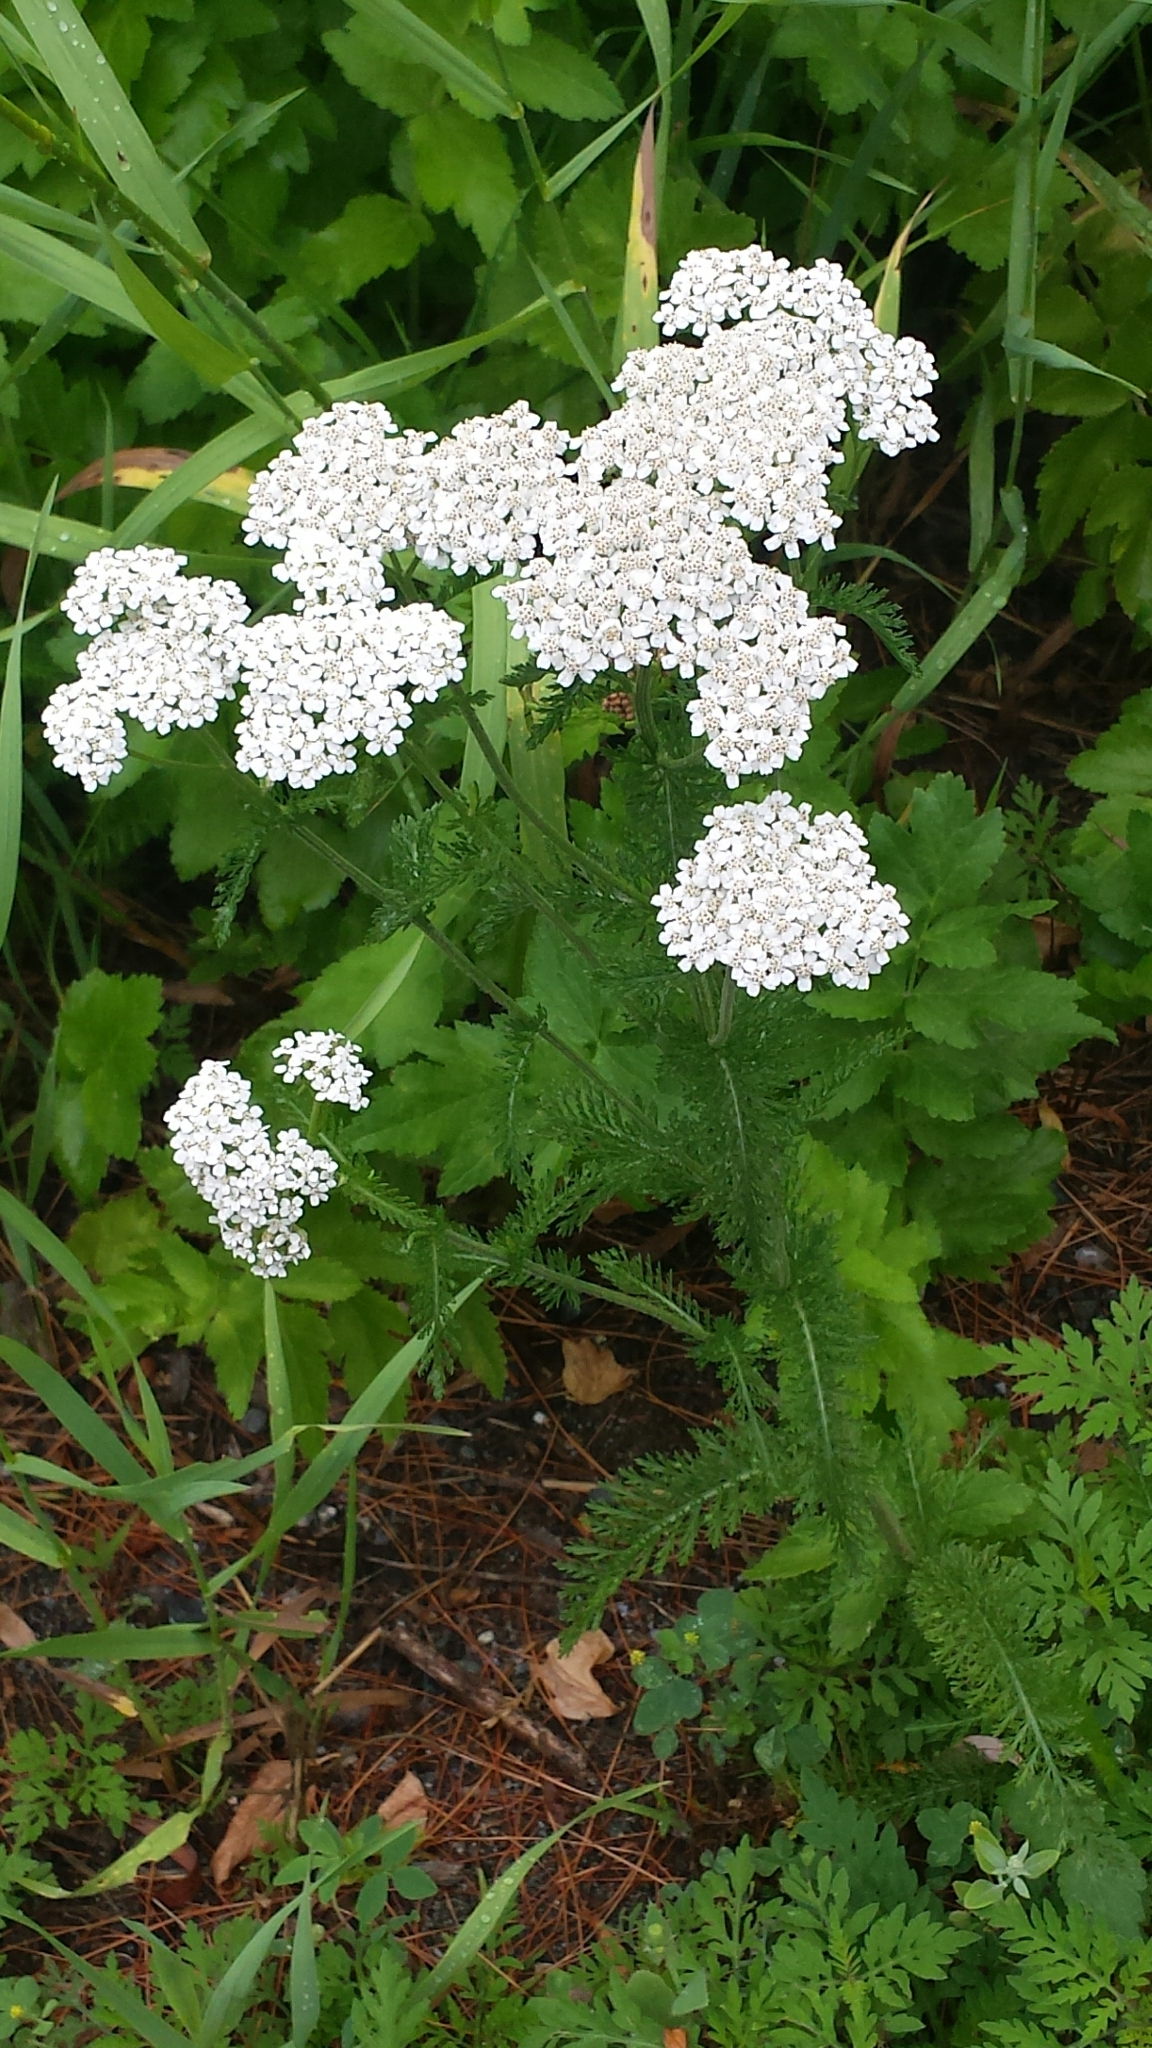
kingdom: Plantae
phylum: Tracheophyta
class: Magnoliopsida
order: Asterales
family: Asteraceae
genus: Achillea
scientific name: Achillea millefolium
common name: Yarrow
